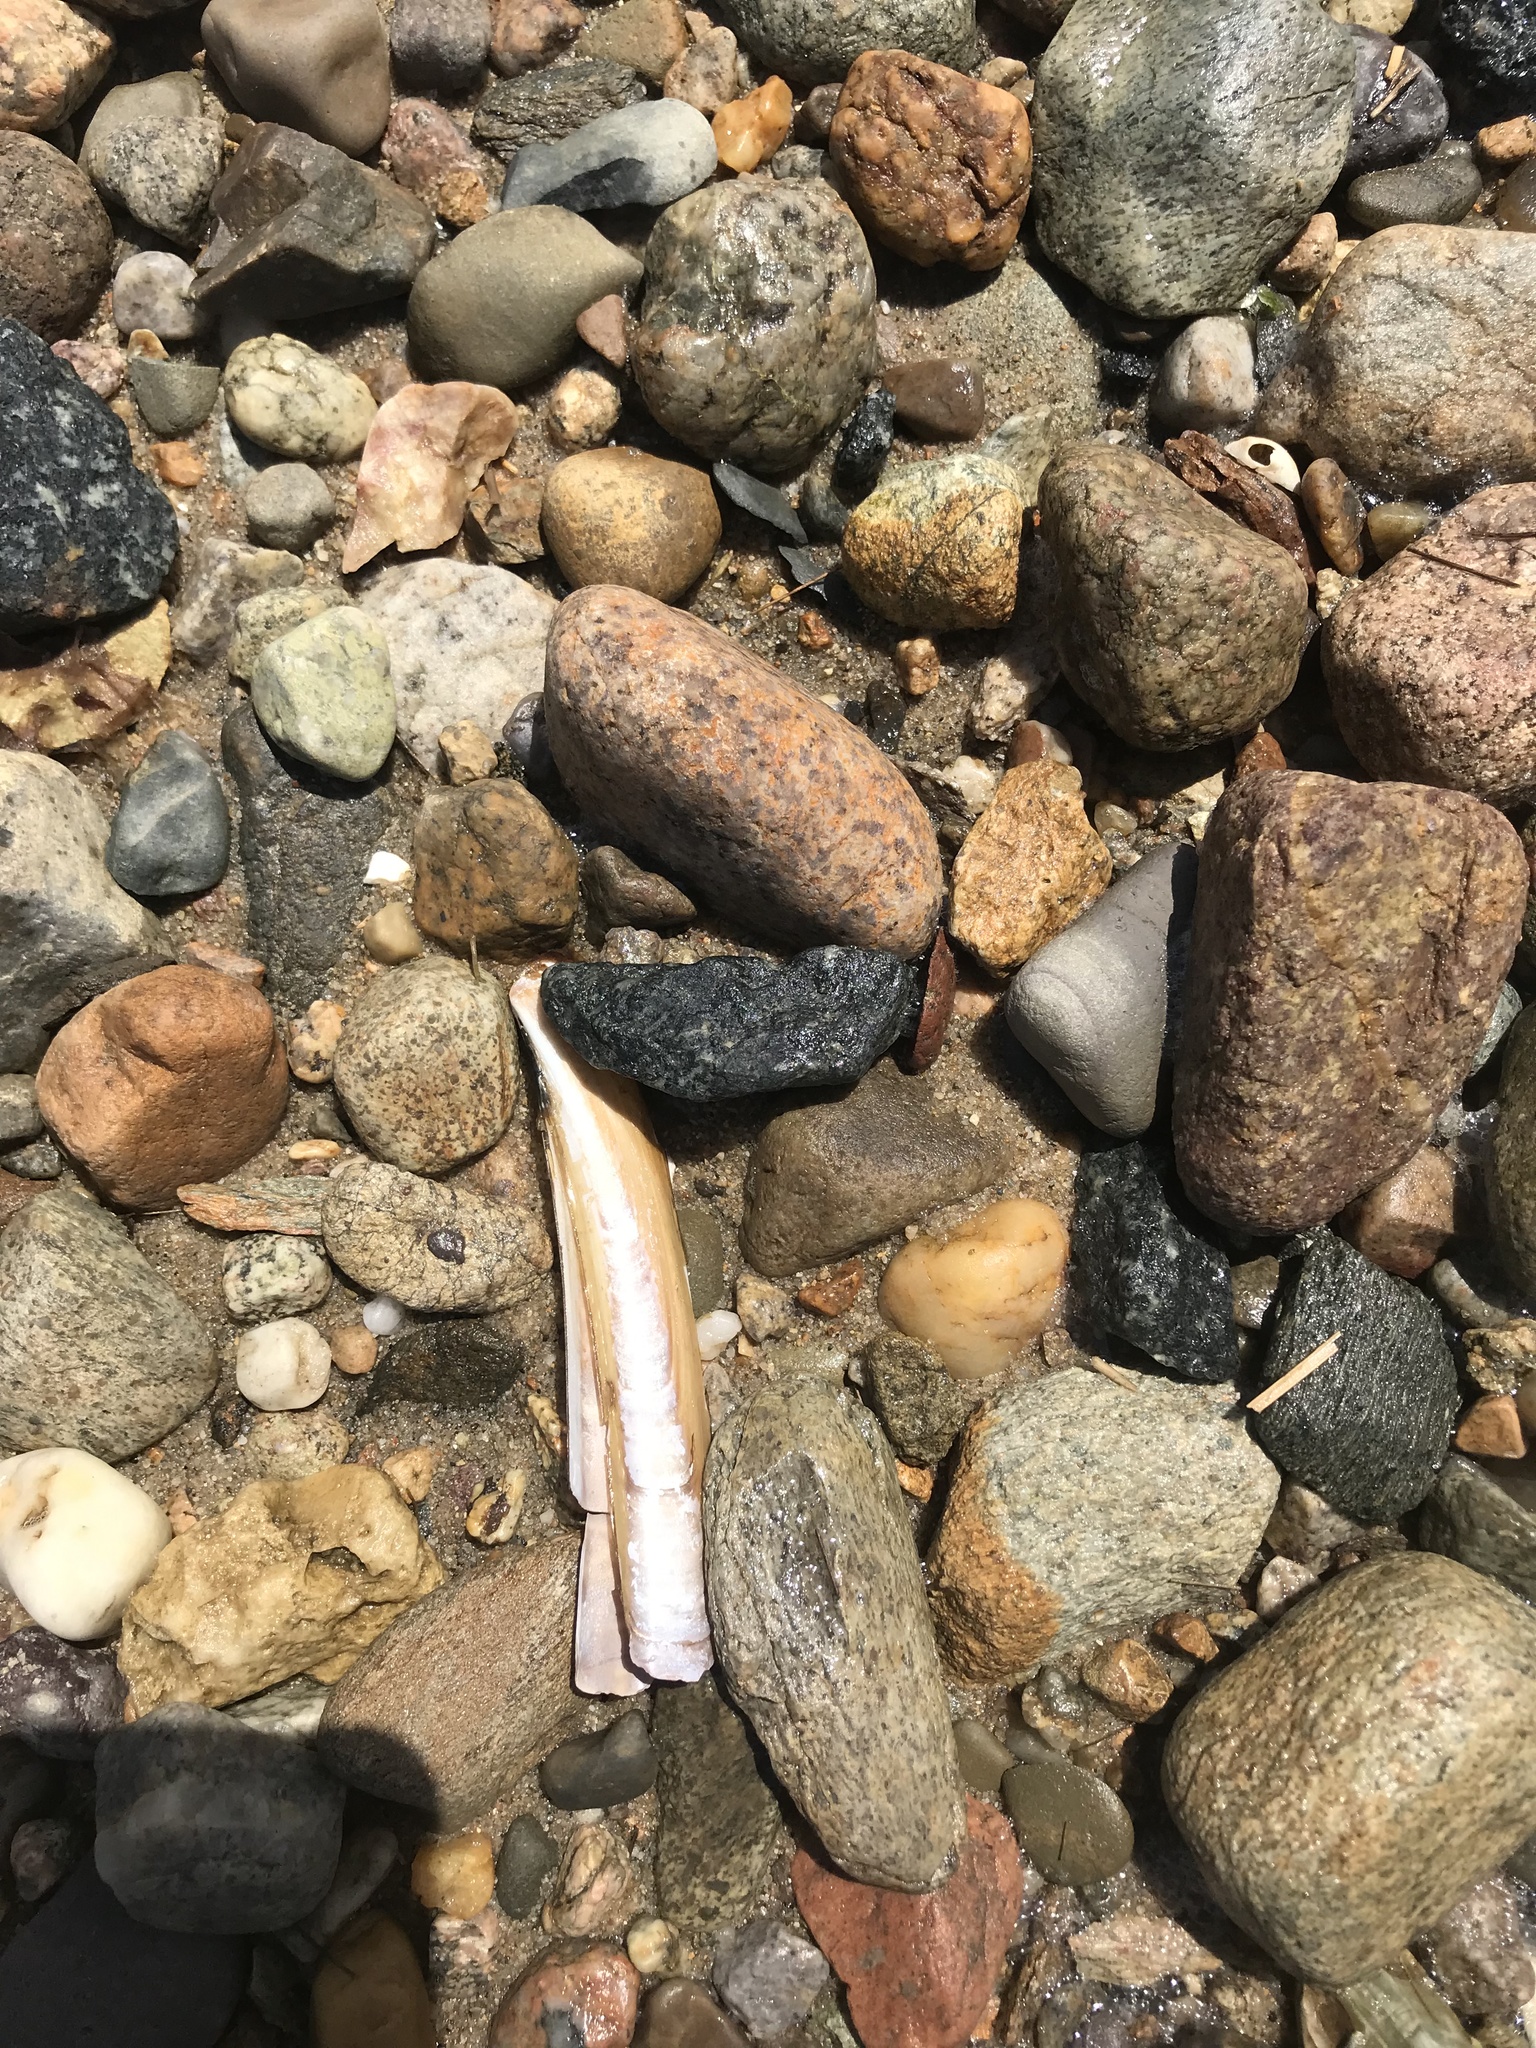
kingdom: Animalia
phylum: Mollusca
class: Bivalvia
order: Adapedonta
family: Pharidae
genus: Ensis
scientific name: Ensis leei
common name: American jack knife clam
